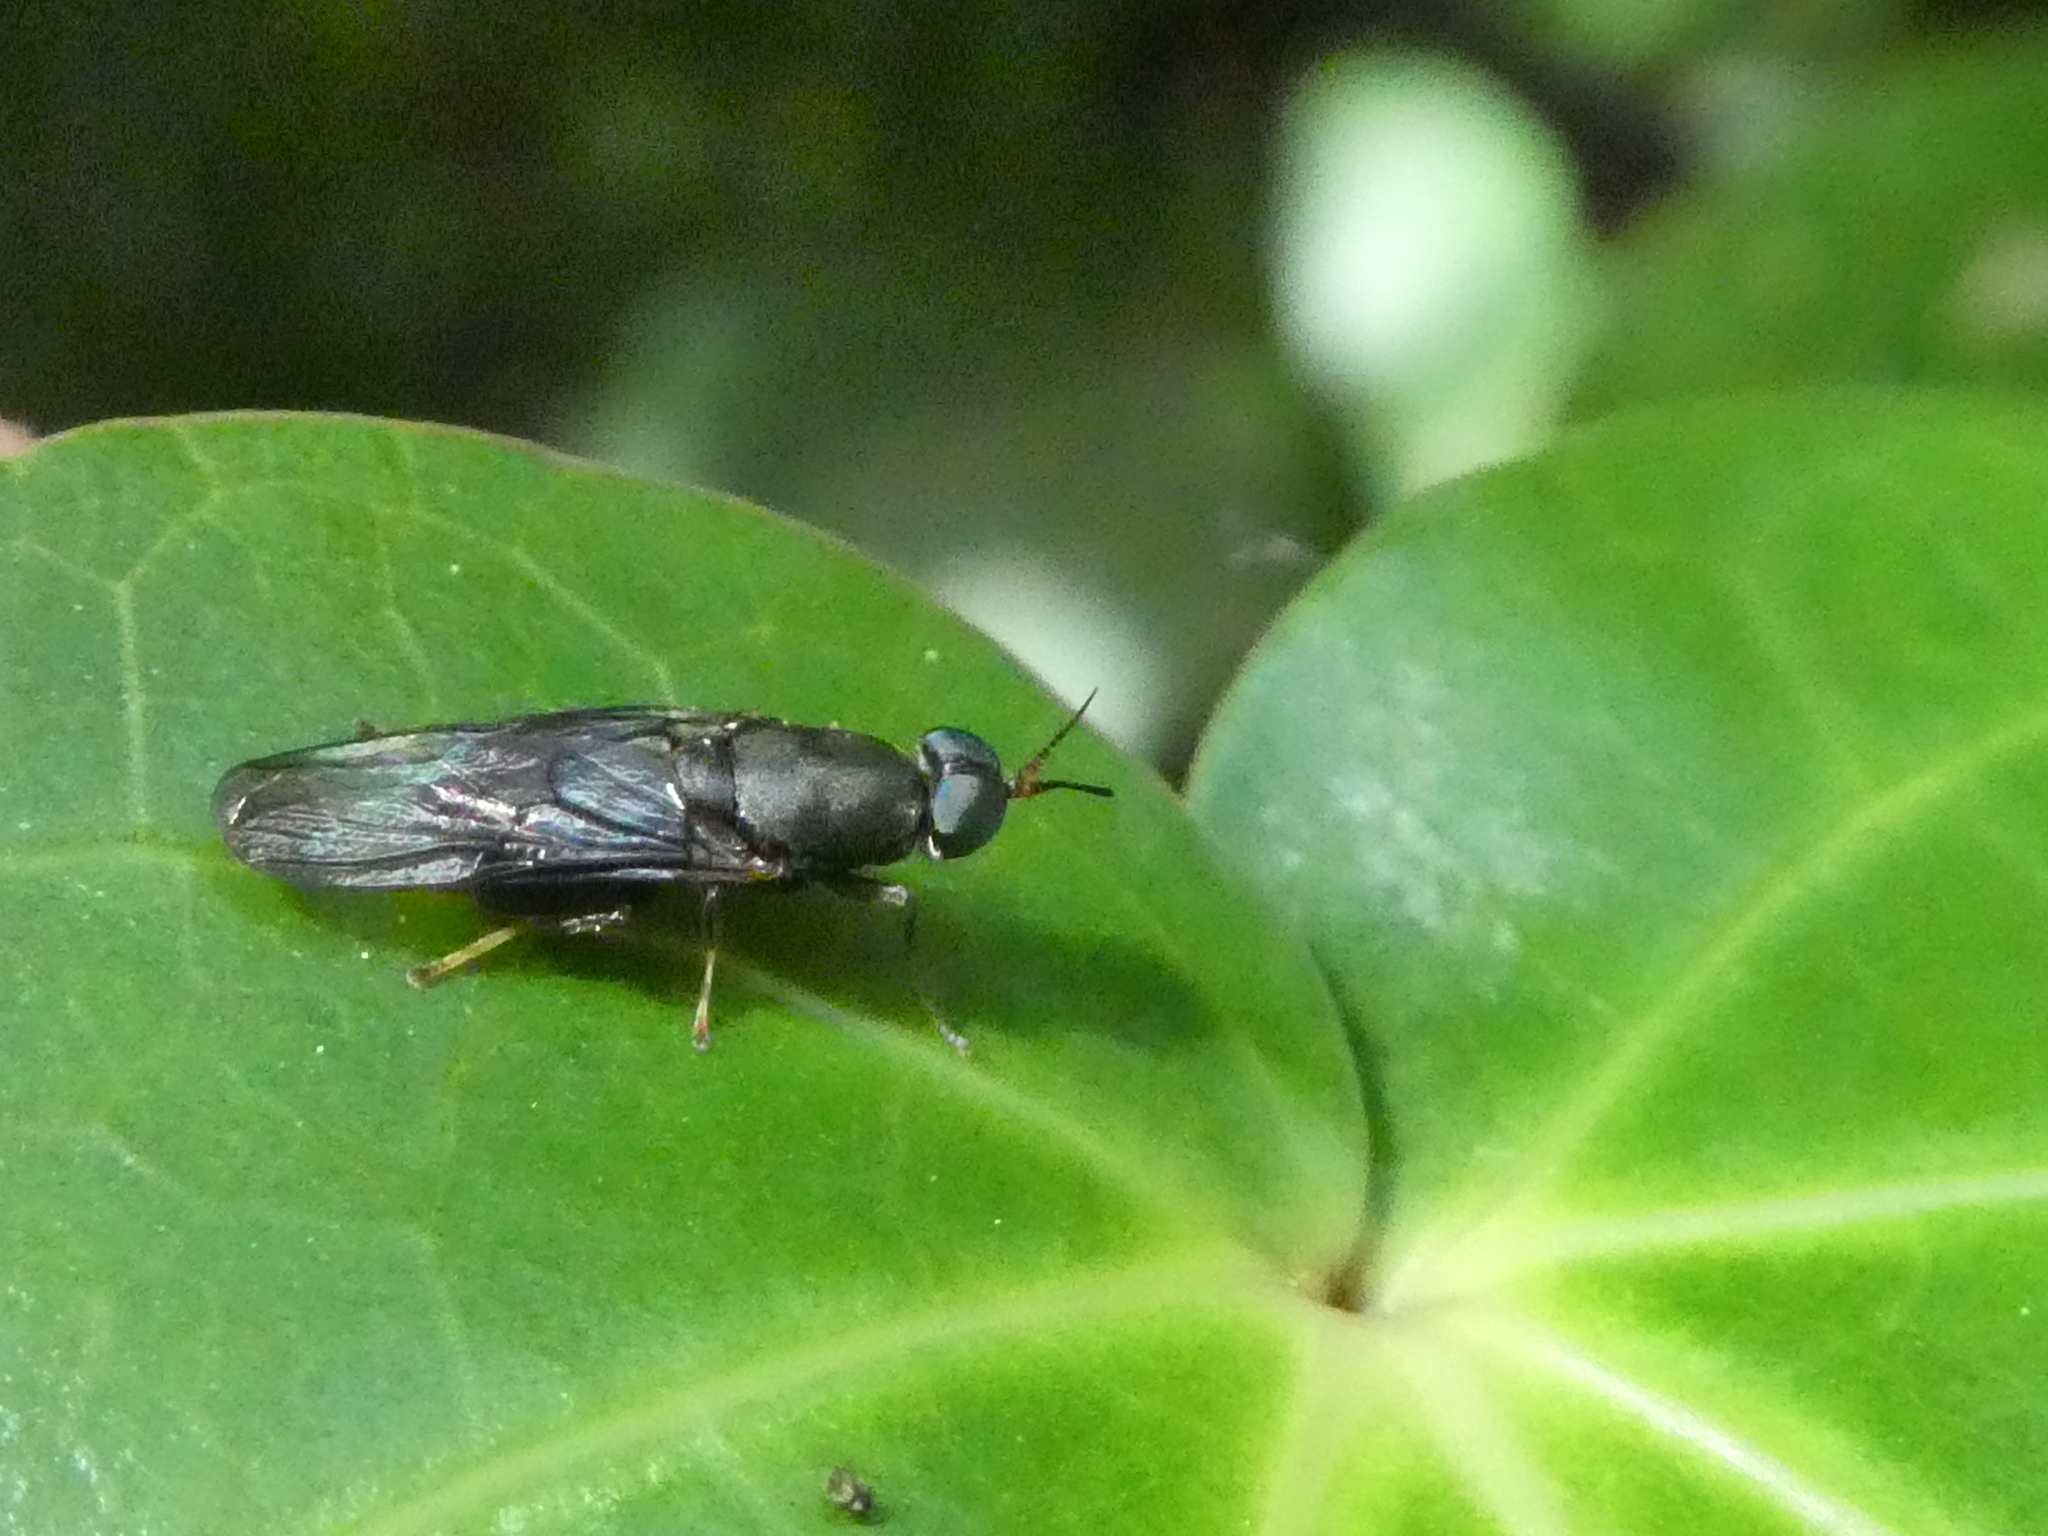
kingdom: Animalia
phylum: Arthropoda
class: Insecta
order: Diptera
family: Stratiomyidae
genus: Dysbiota
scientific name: Dysbiota peregrina
